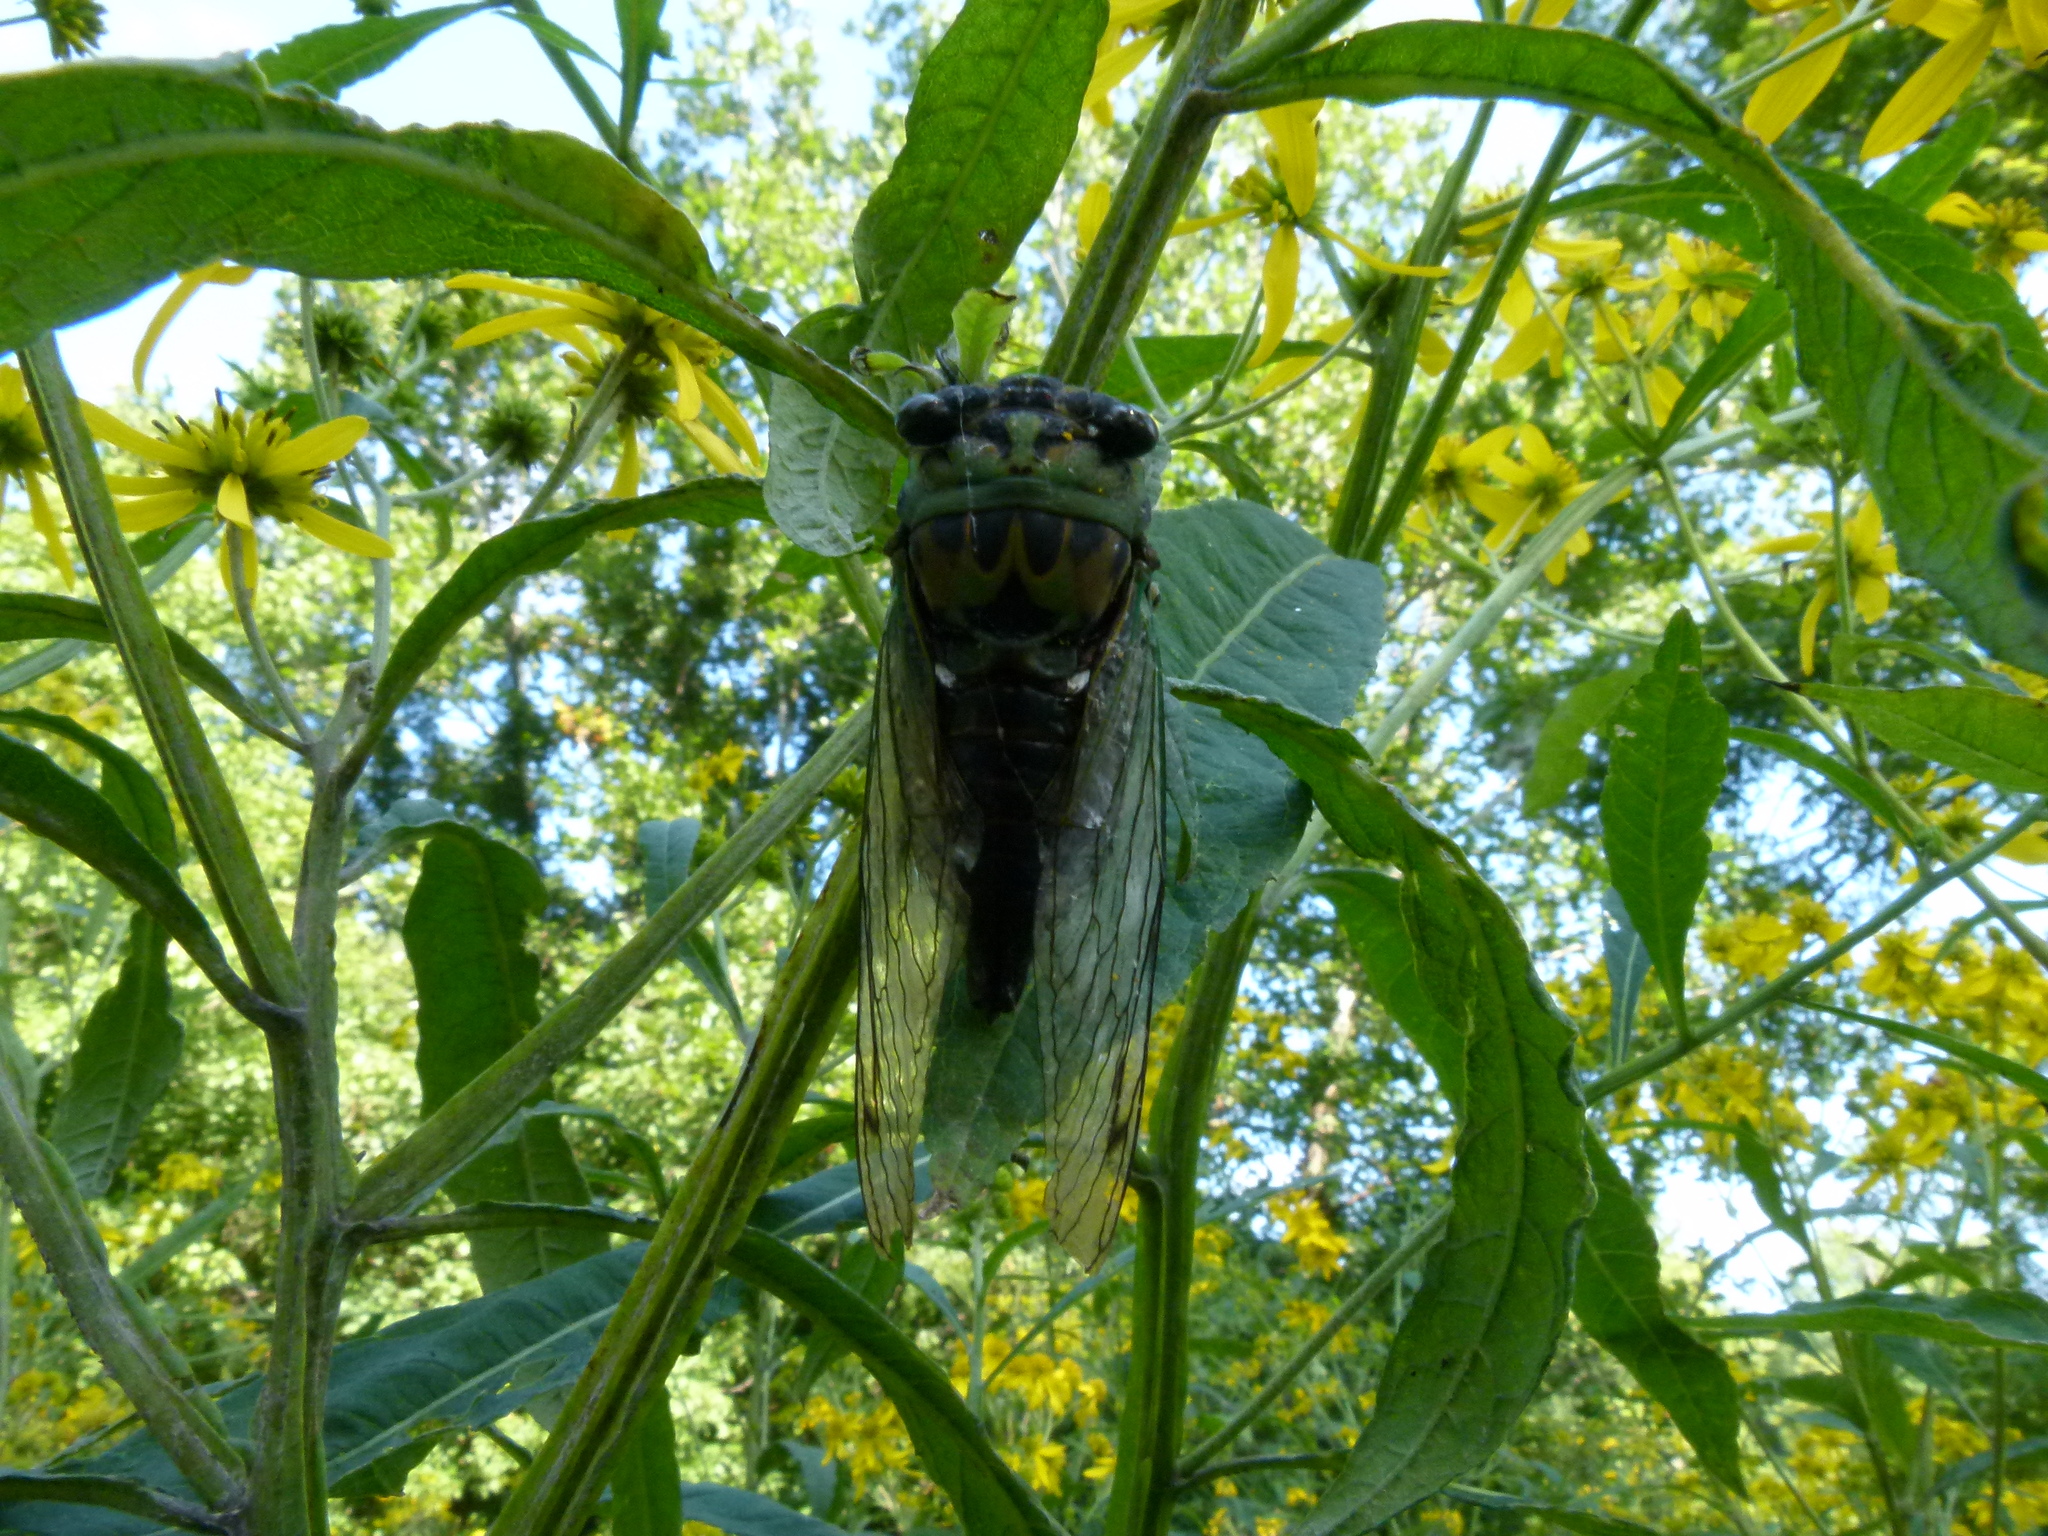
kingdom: Animalia
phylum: Arthropoda
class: Insecta
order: Hemiptera
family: Cicadidae
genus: Neotibicen
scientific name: Neotibicen winnemanna
